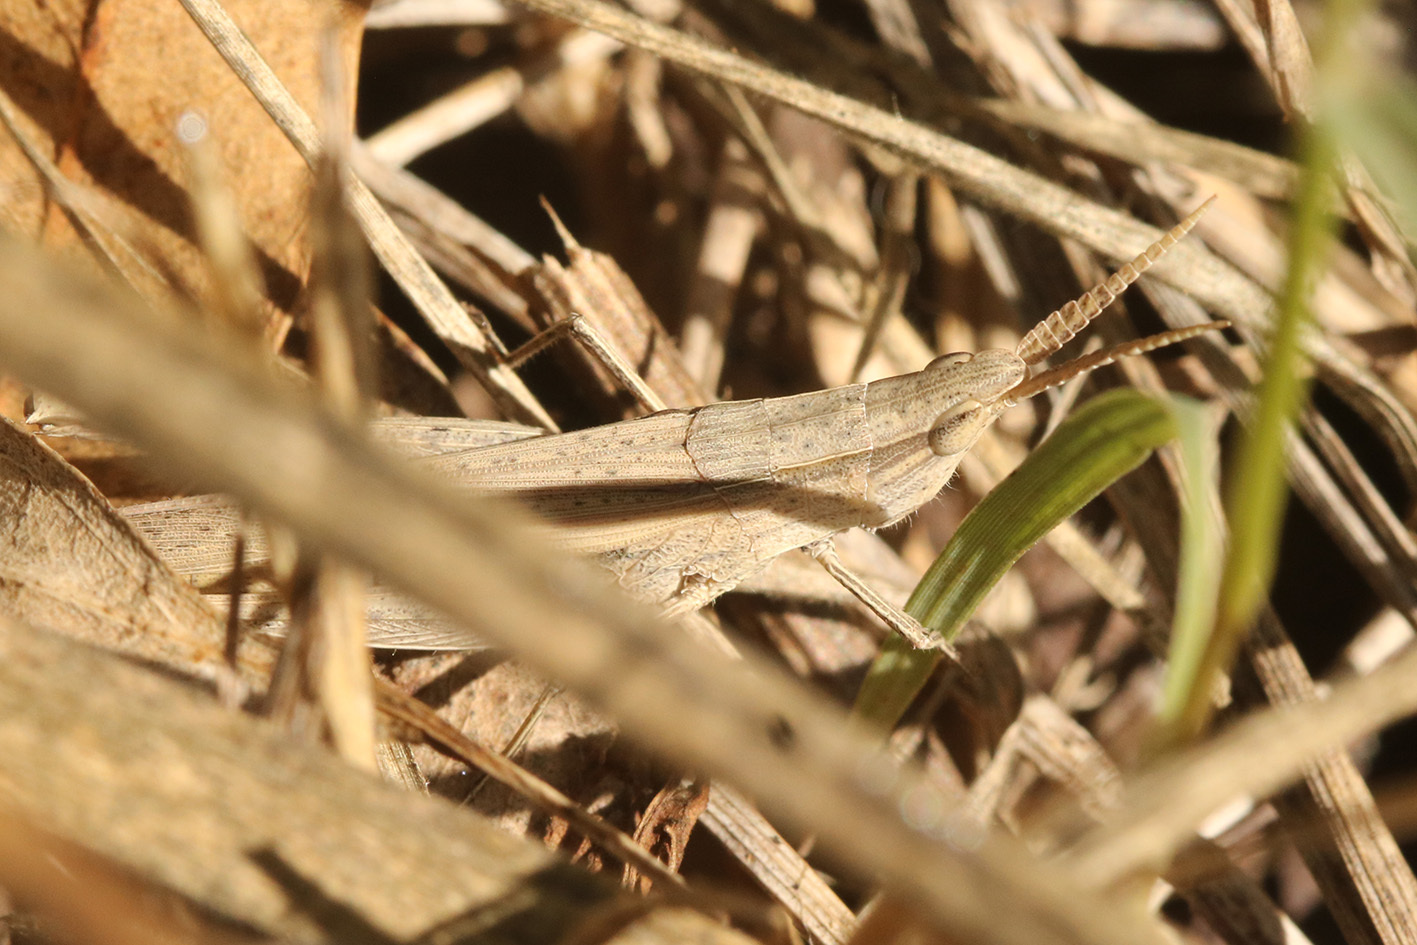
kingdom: Animalia
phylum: Arthropoda
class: Insecta
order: Orthoptera
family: Acrididae
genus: Allotruxalis
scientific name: Allotruxalis gracilis
